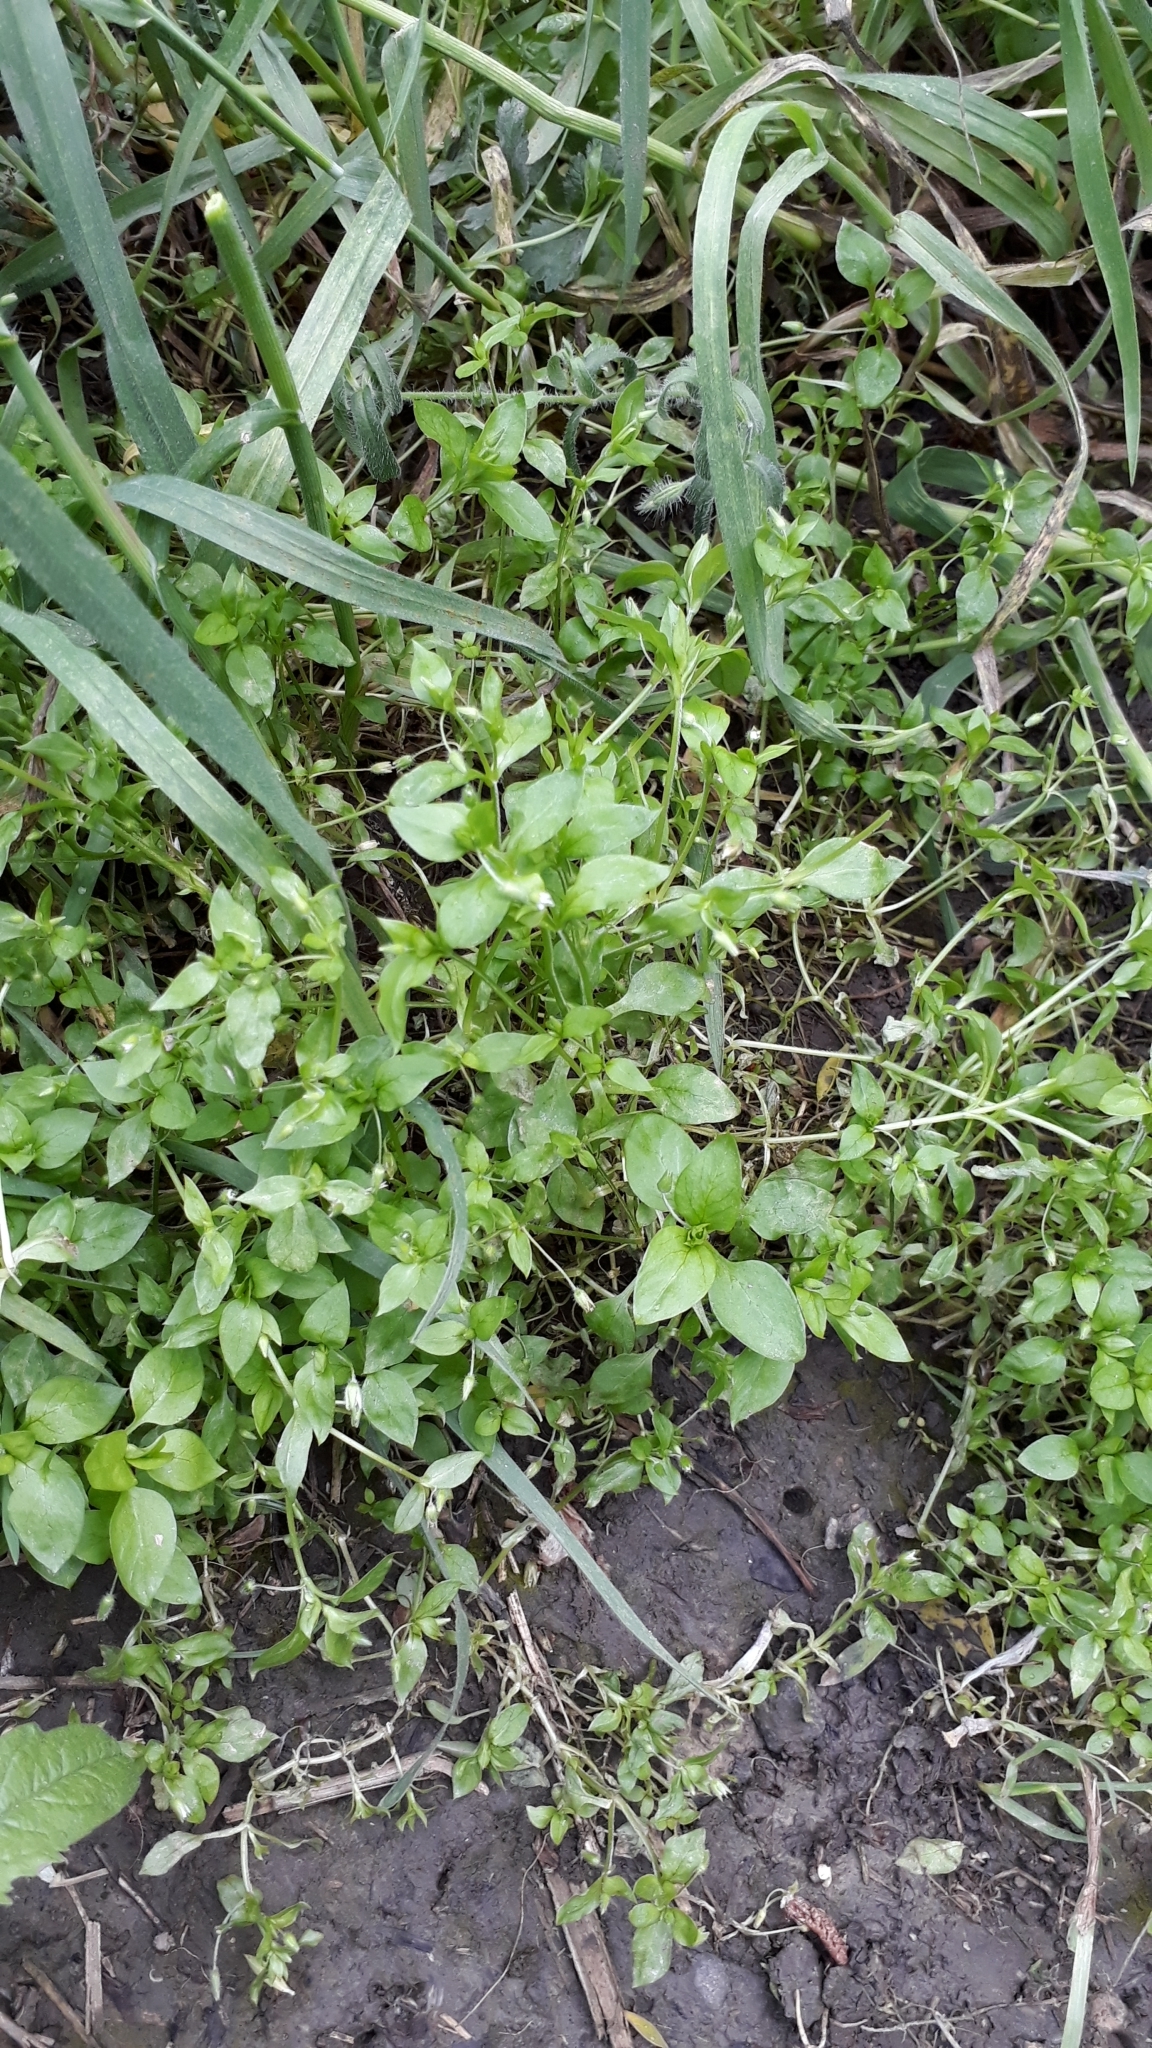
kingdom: Plantae
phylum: Tracheophyta
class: Magnoliopsida
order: Caryophyllales
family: Caryophyllaceae
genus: Stellaria
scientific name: Stellaria media
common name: Common chickweed
